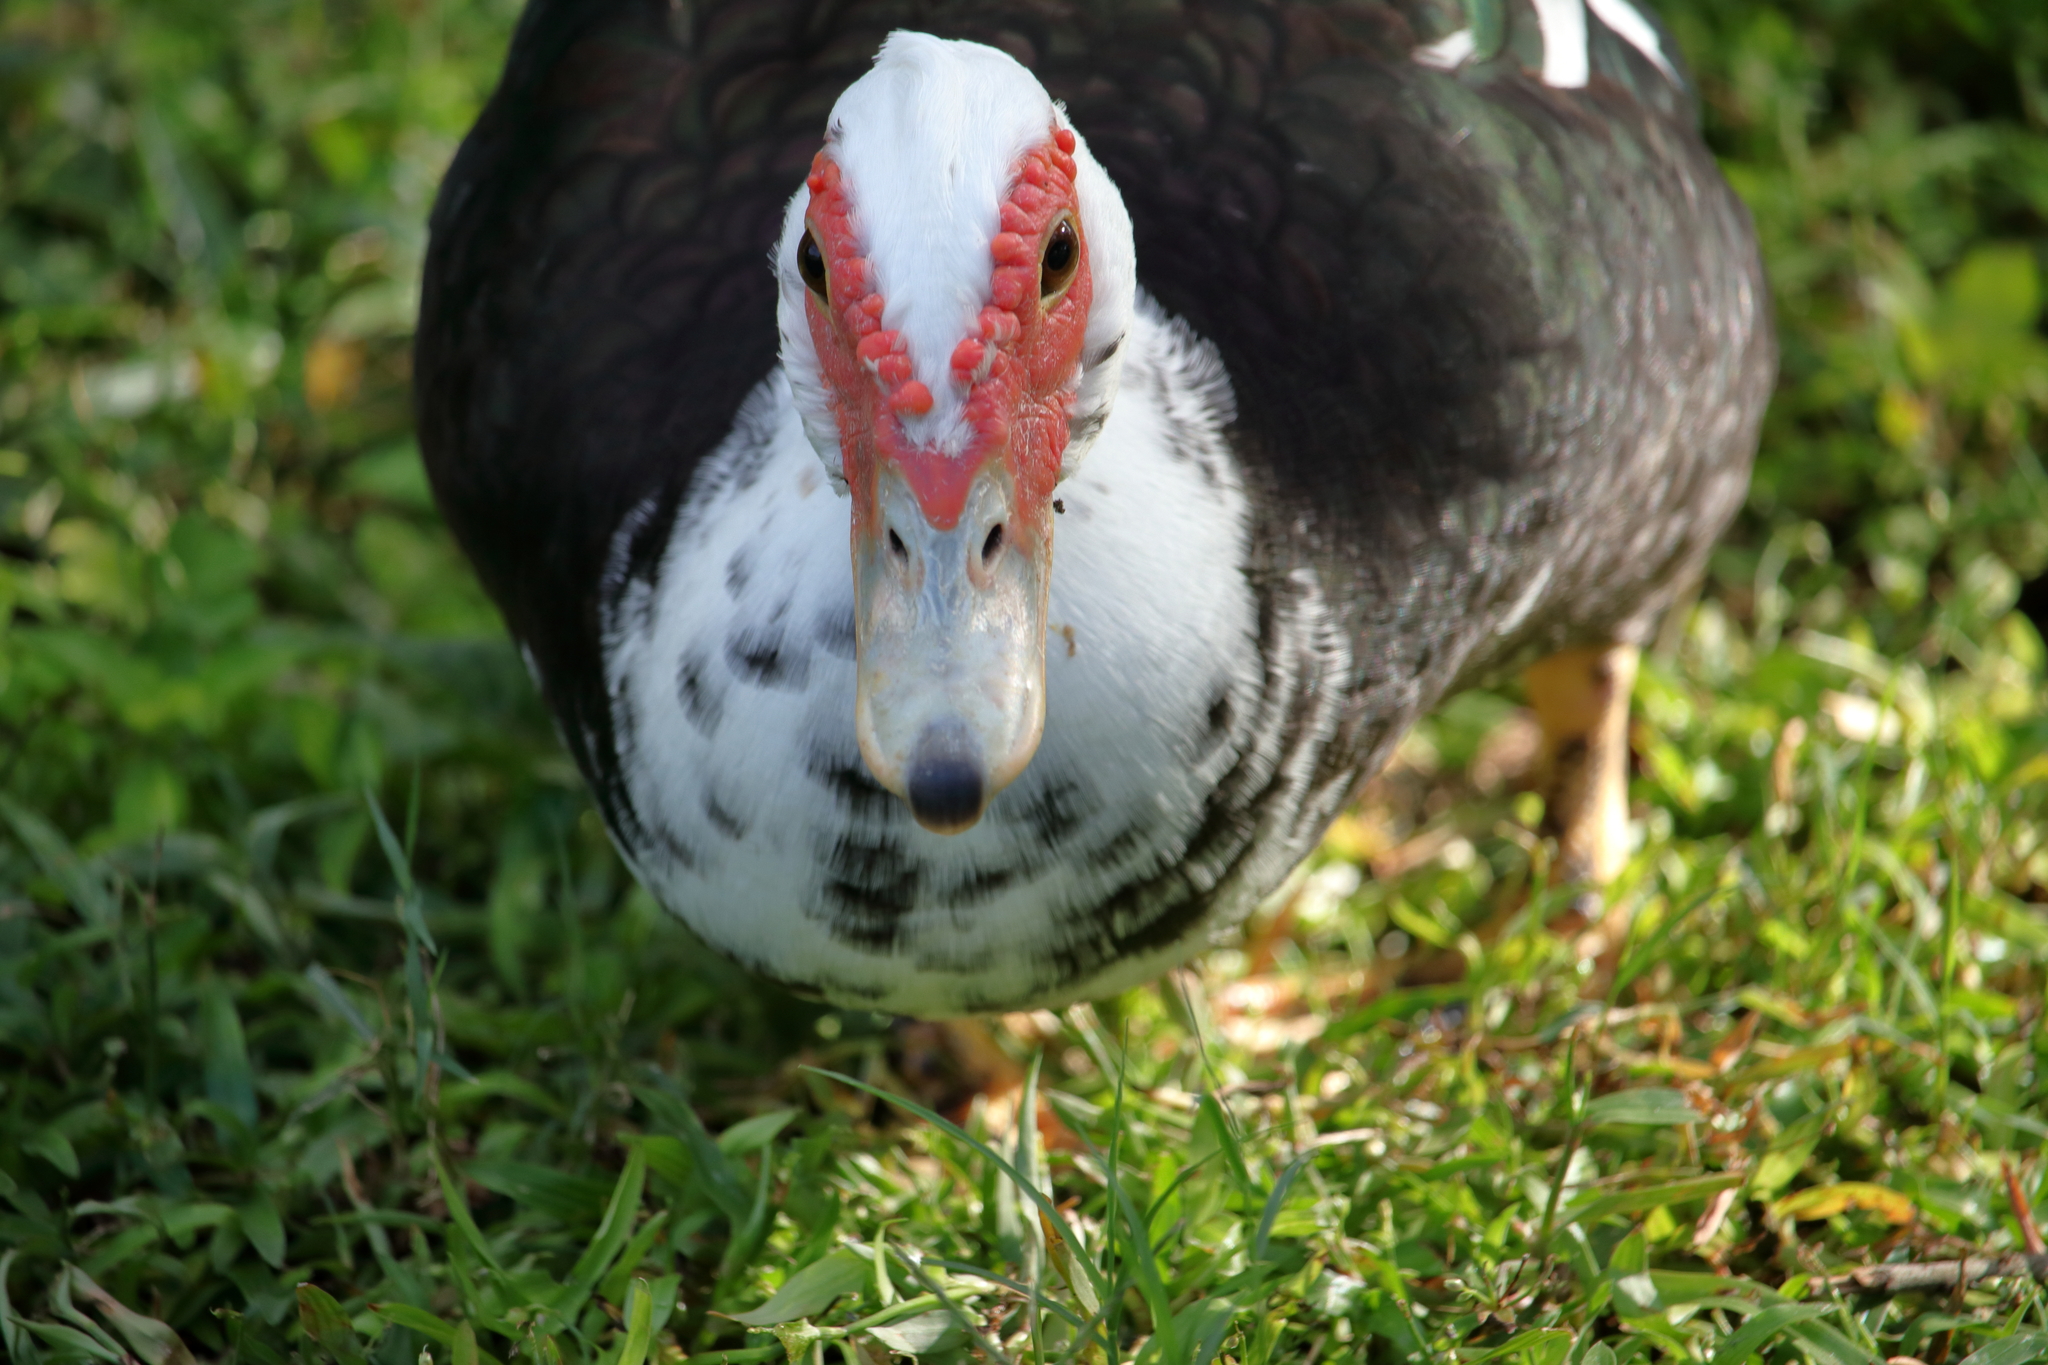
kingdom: Animalia
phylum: Chordata
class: Aves
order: Anseriformes
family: Anatidae
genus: Cairina
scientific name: Cairina moschata
